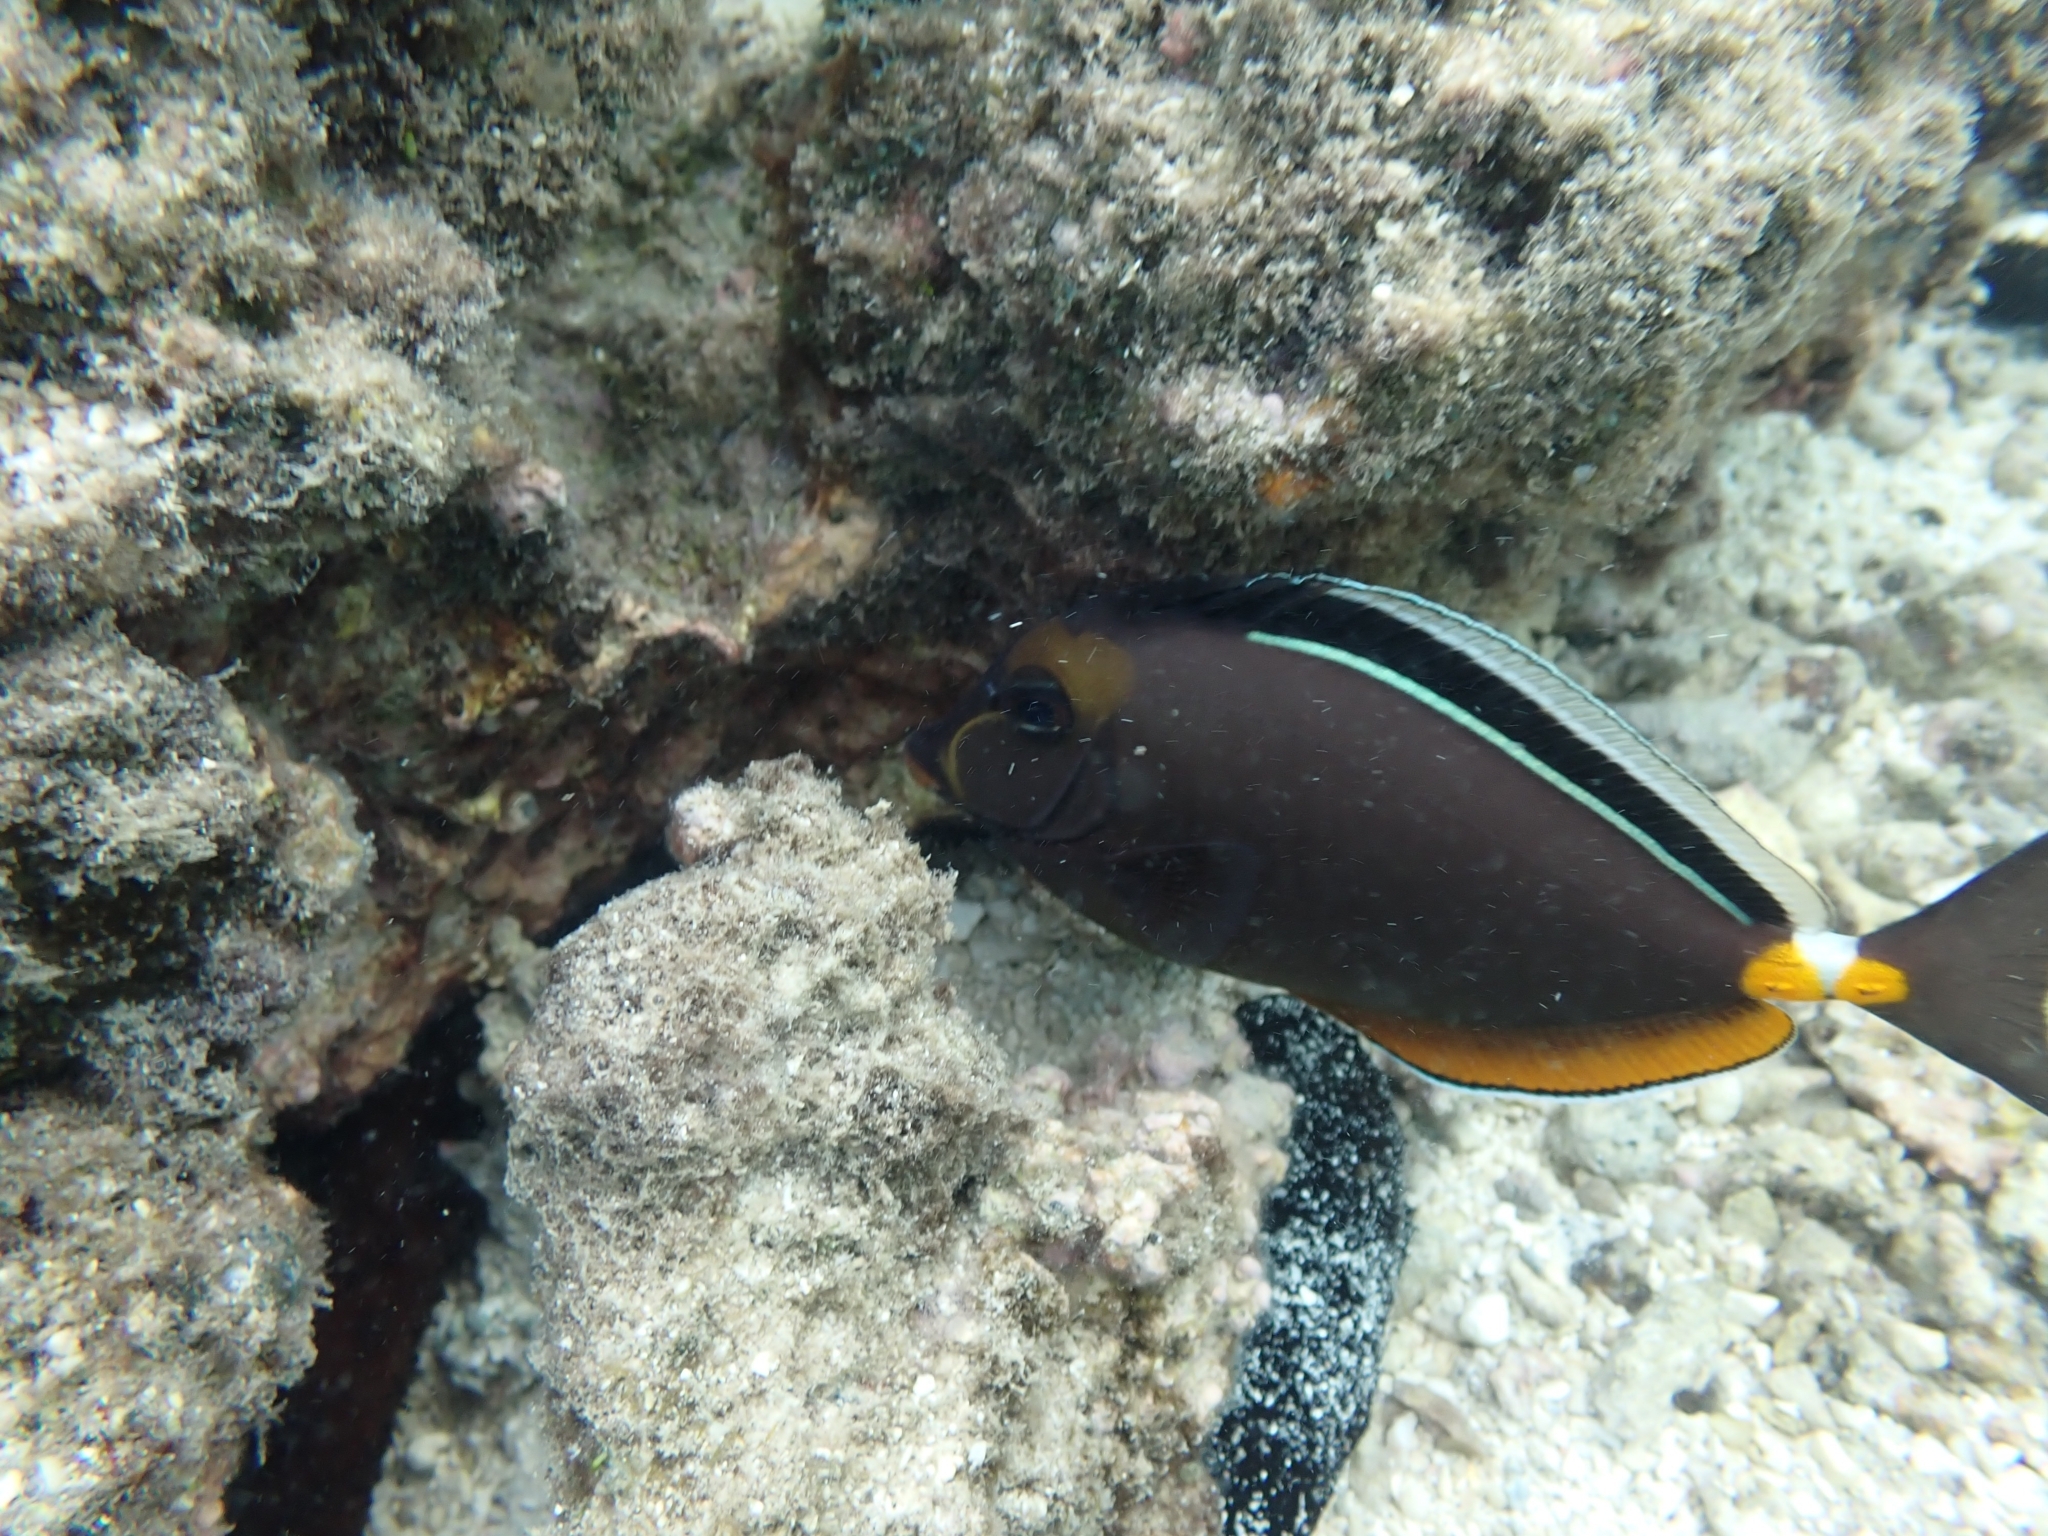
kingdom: Animalia
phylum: Chordata
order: Perciformes
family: Acanthuridae
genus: Naso
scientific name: Naso lituratus
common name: Orangespine unicornfish
